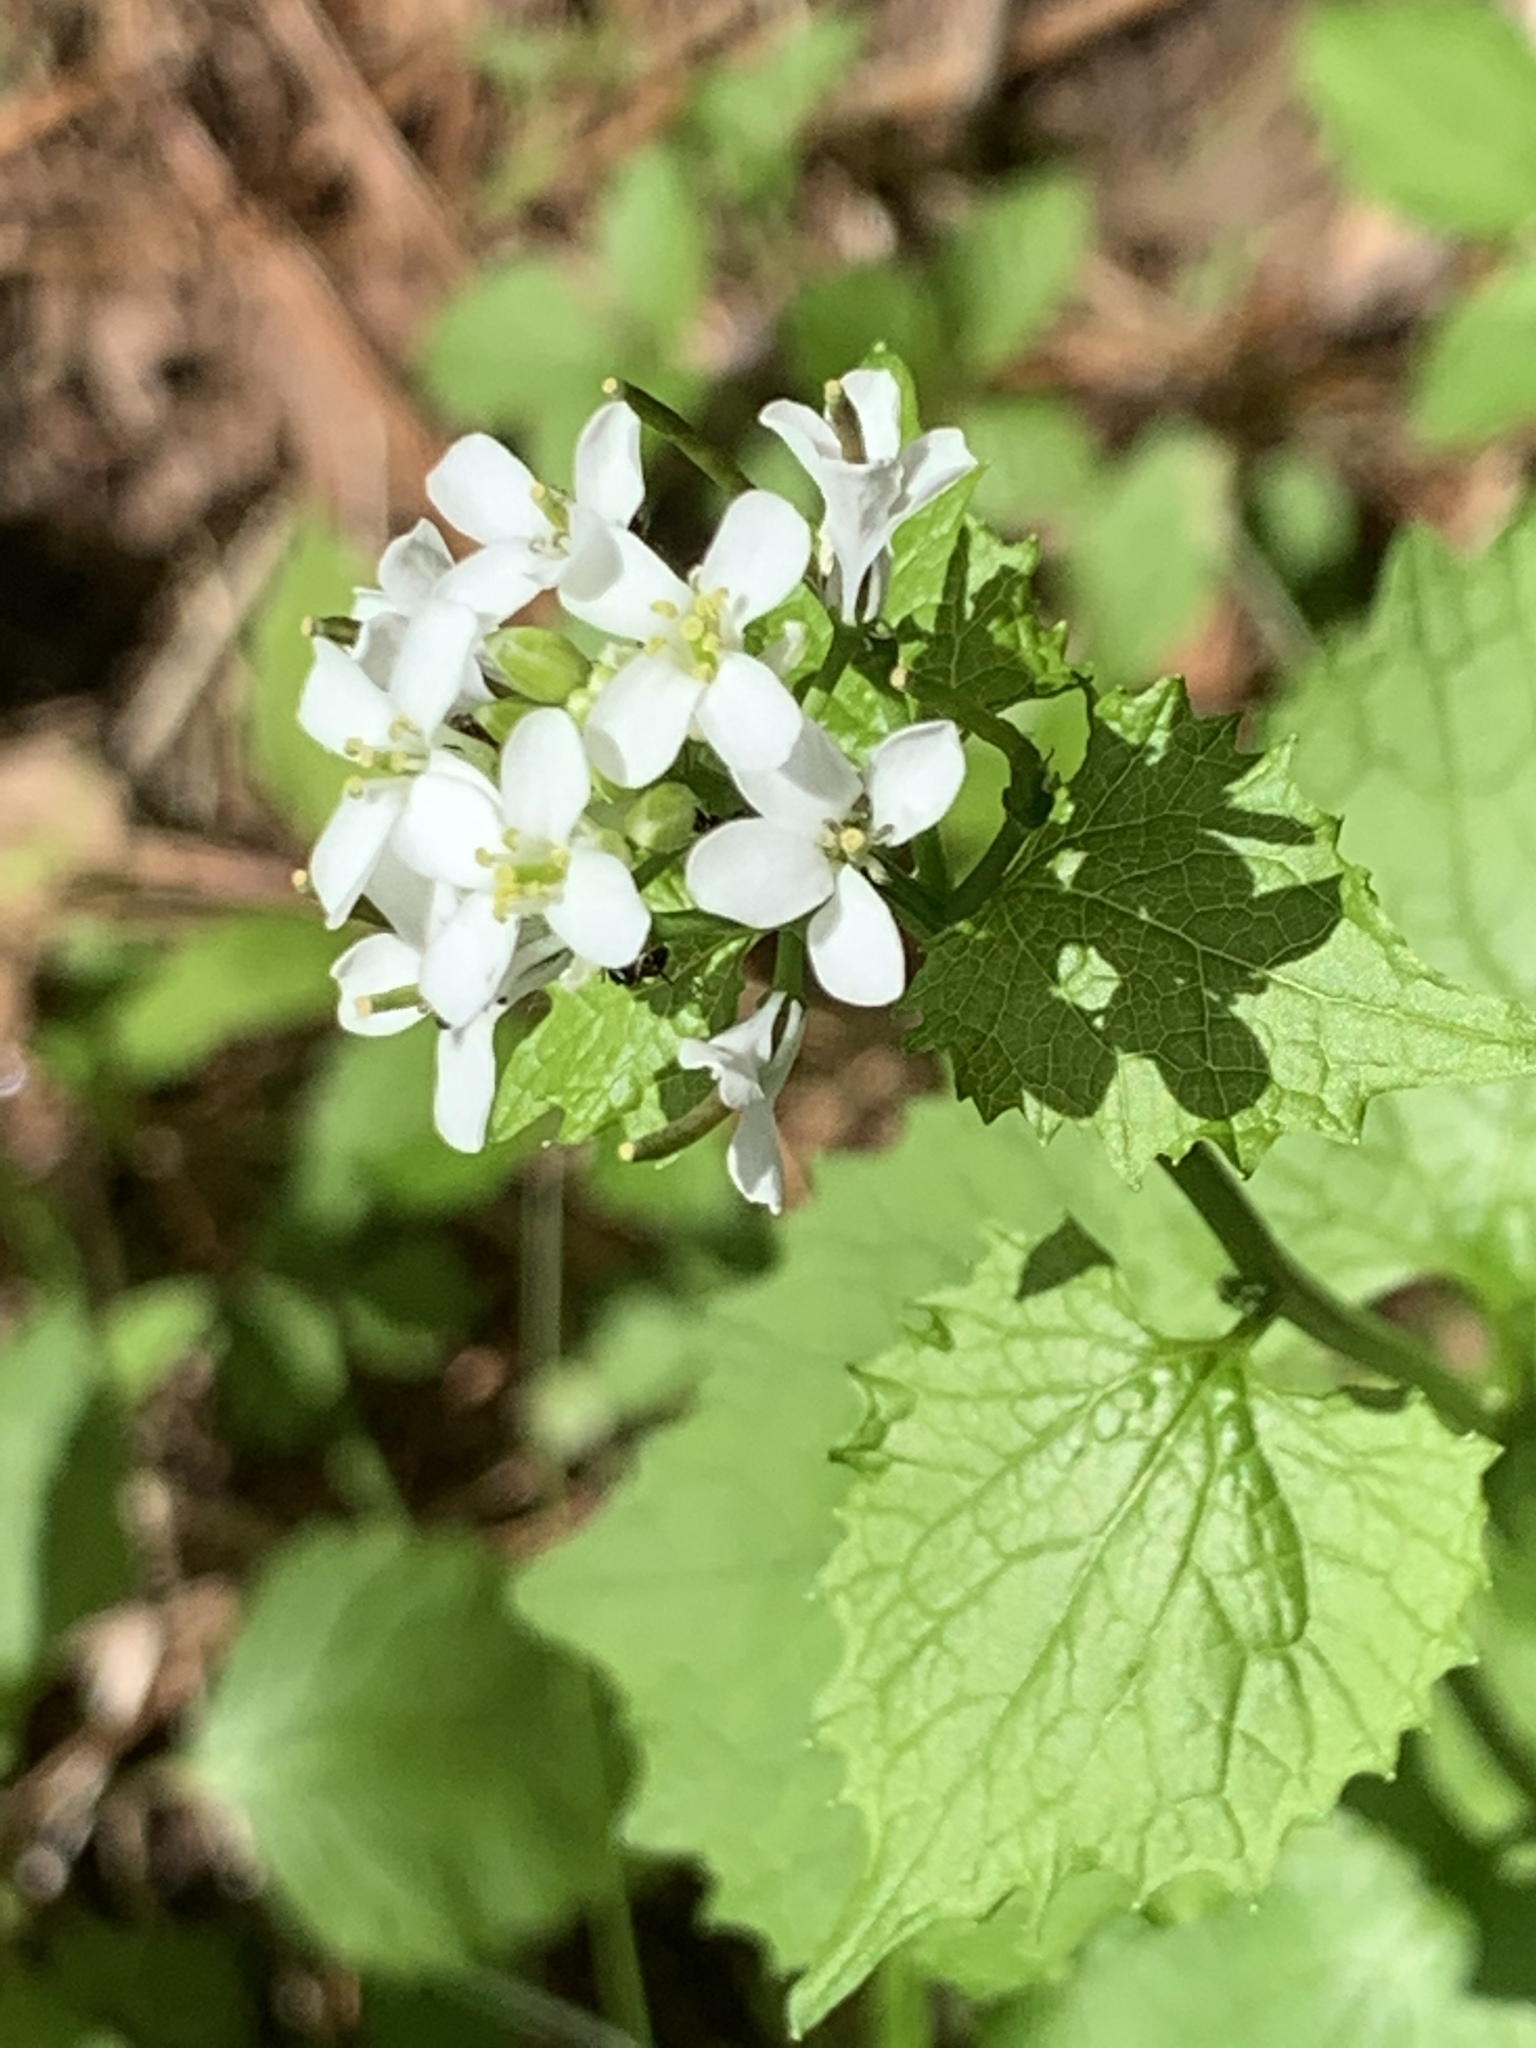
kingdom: Plantae
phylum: Tracheophyta
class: Magnoliopsida
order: Brassicales
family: Brassicaceae
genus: Alliaria
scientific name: Alliaria petiolata
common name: Garlic mustard
